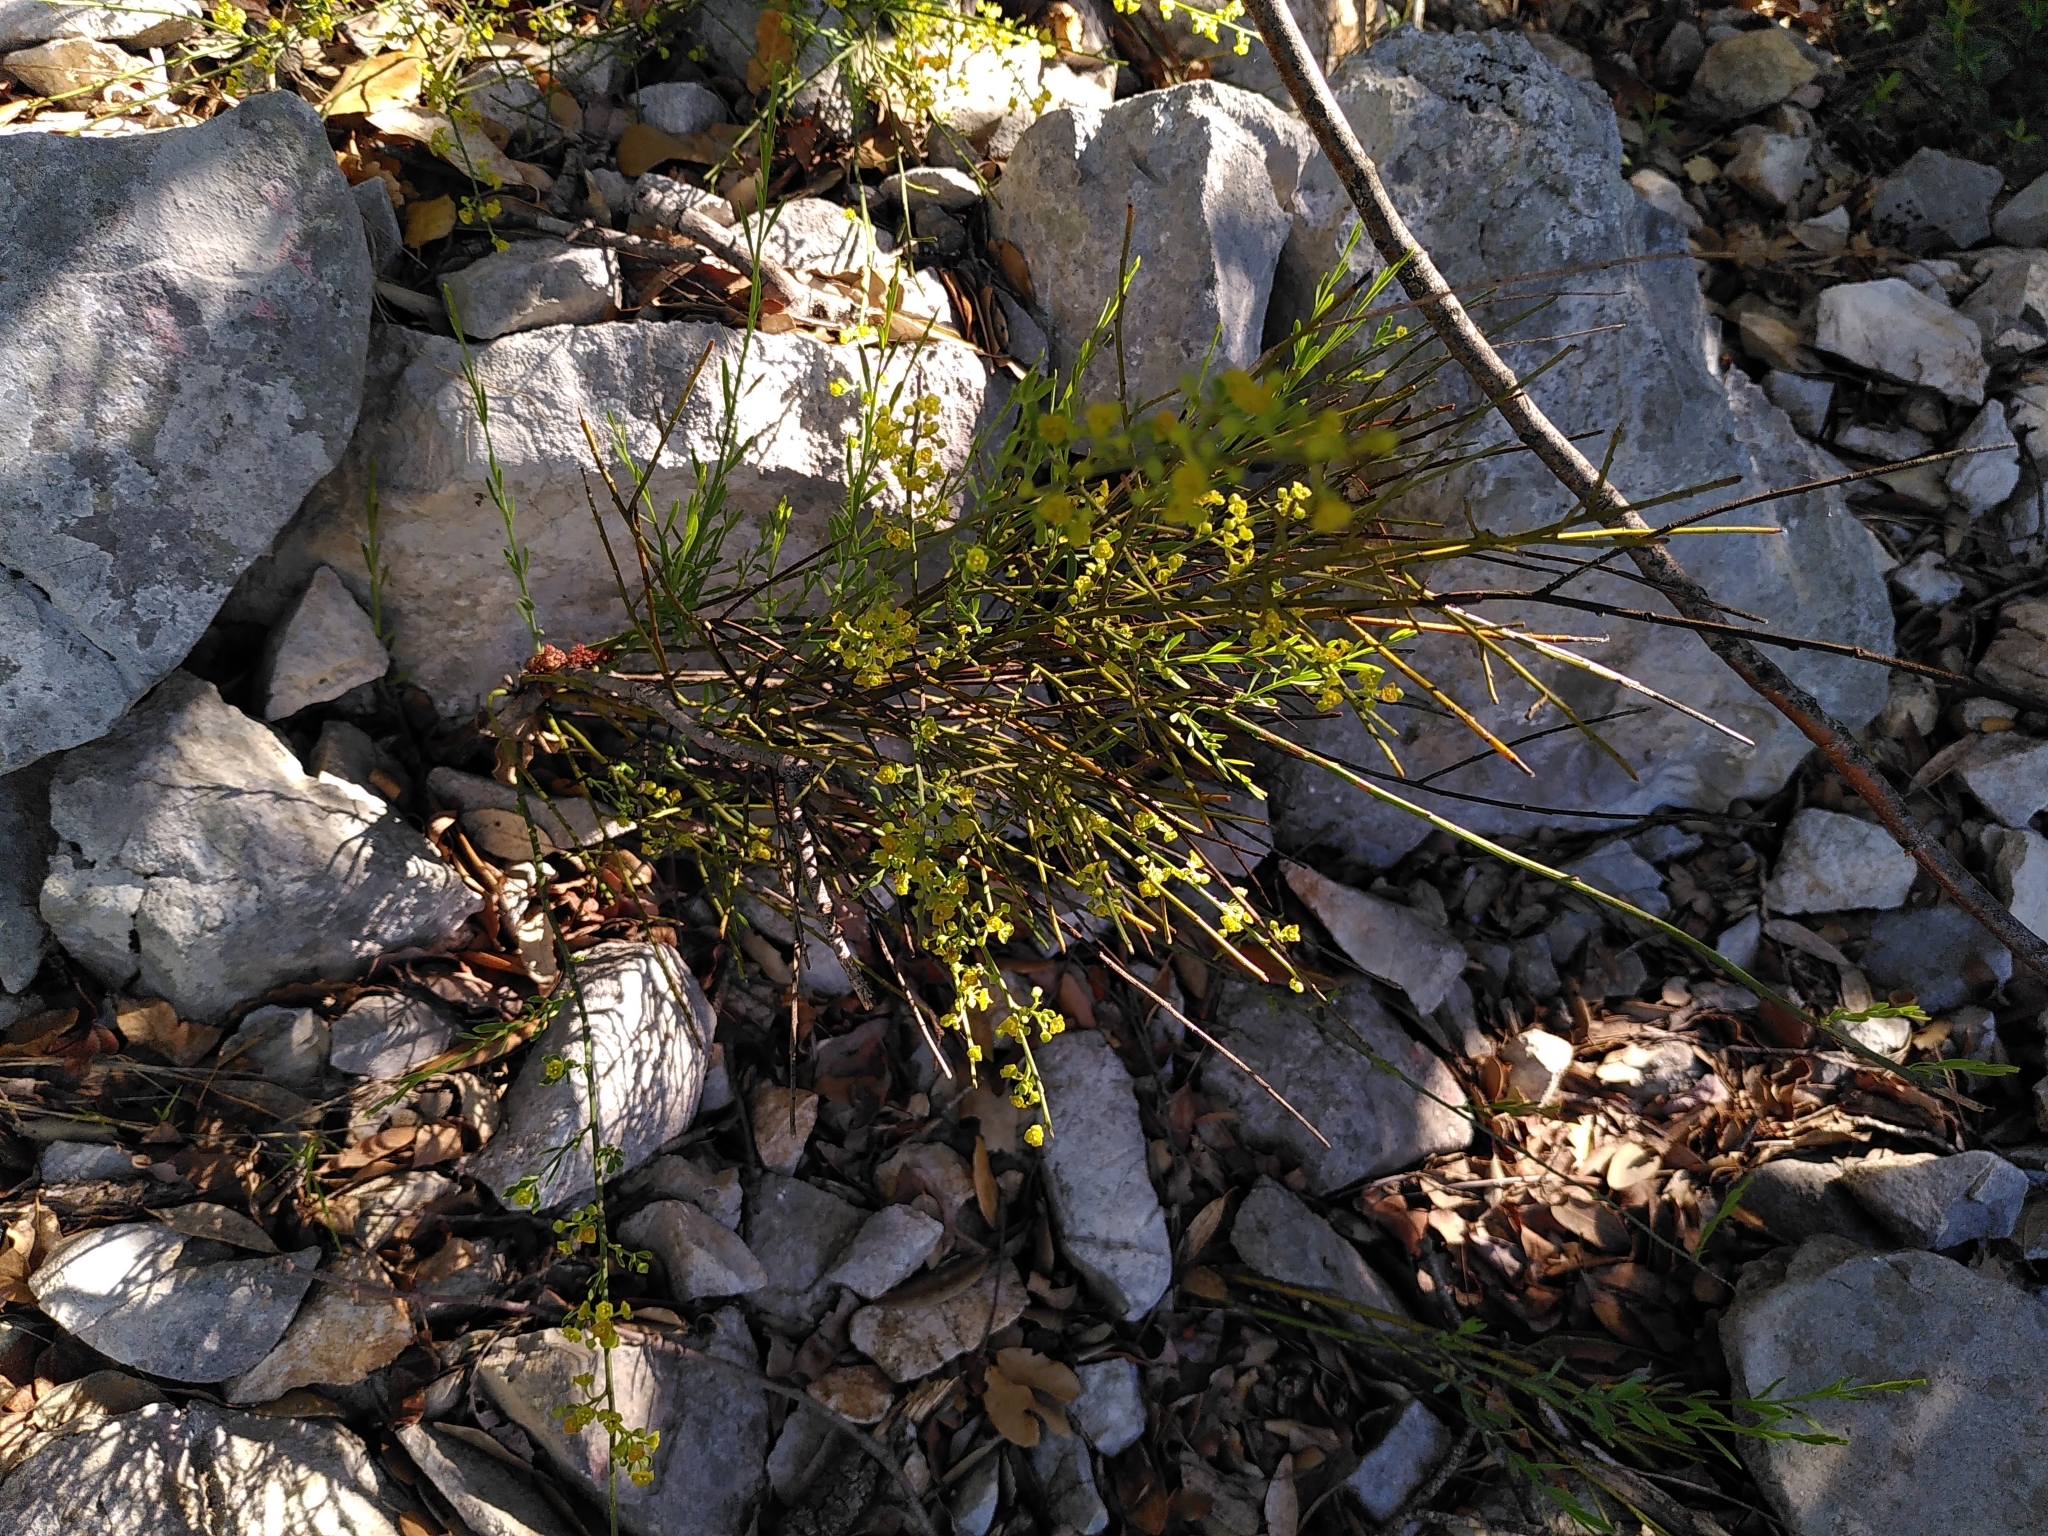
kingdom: Plantae
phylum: Tracheophyta
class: Magnoliopsida
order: Santalales
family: Santalaceae
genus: Osyris
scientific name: Osyris alba
